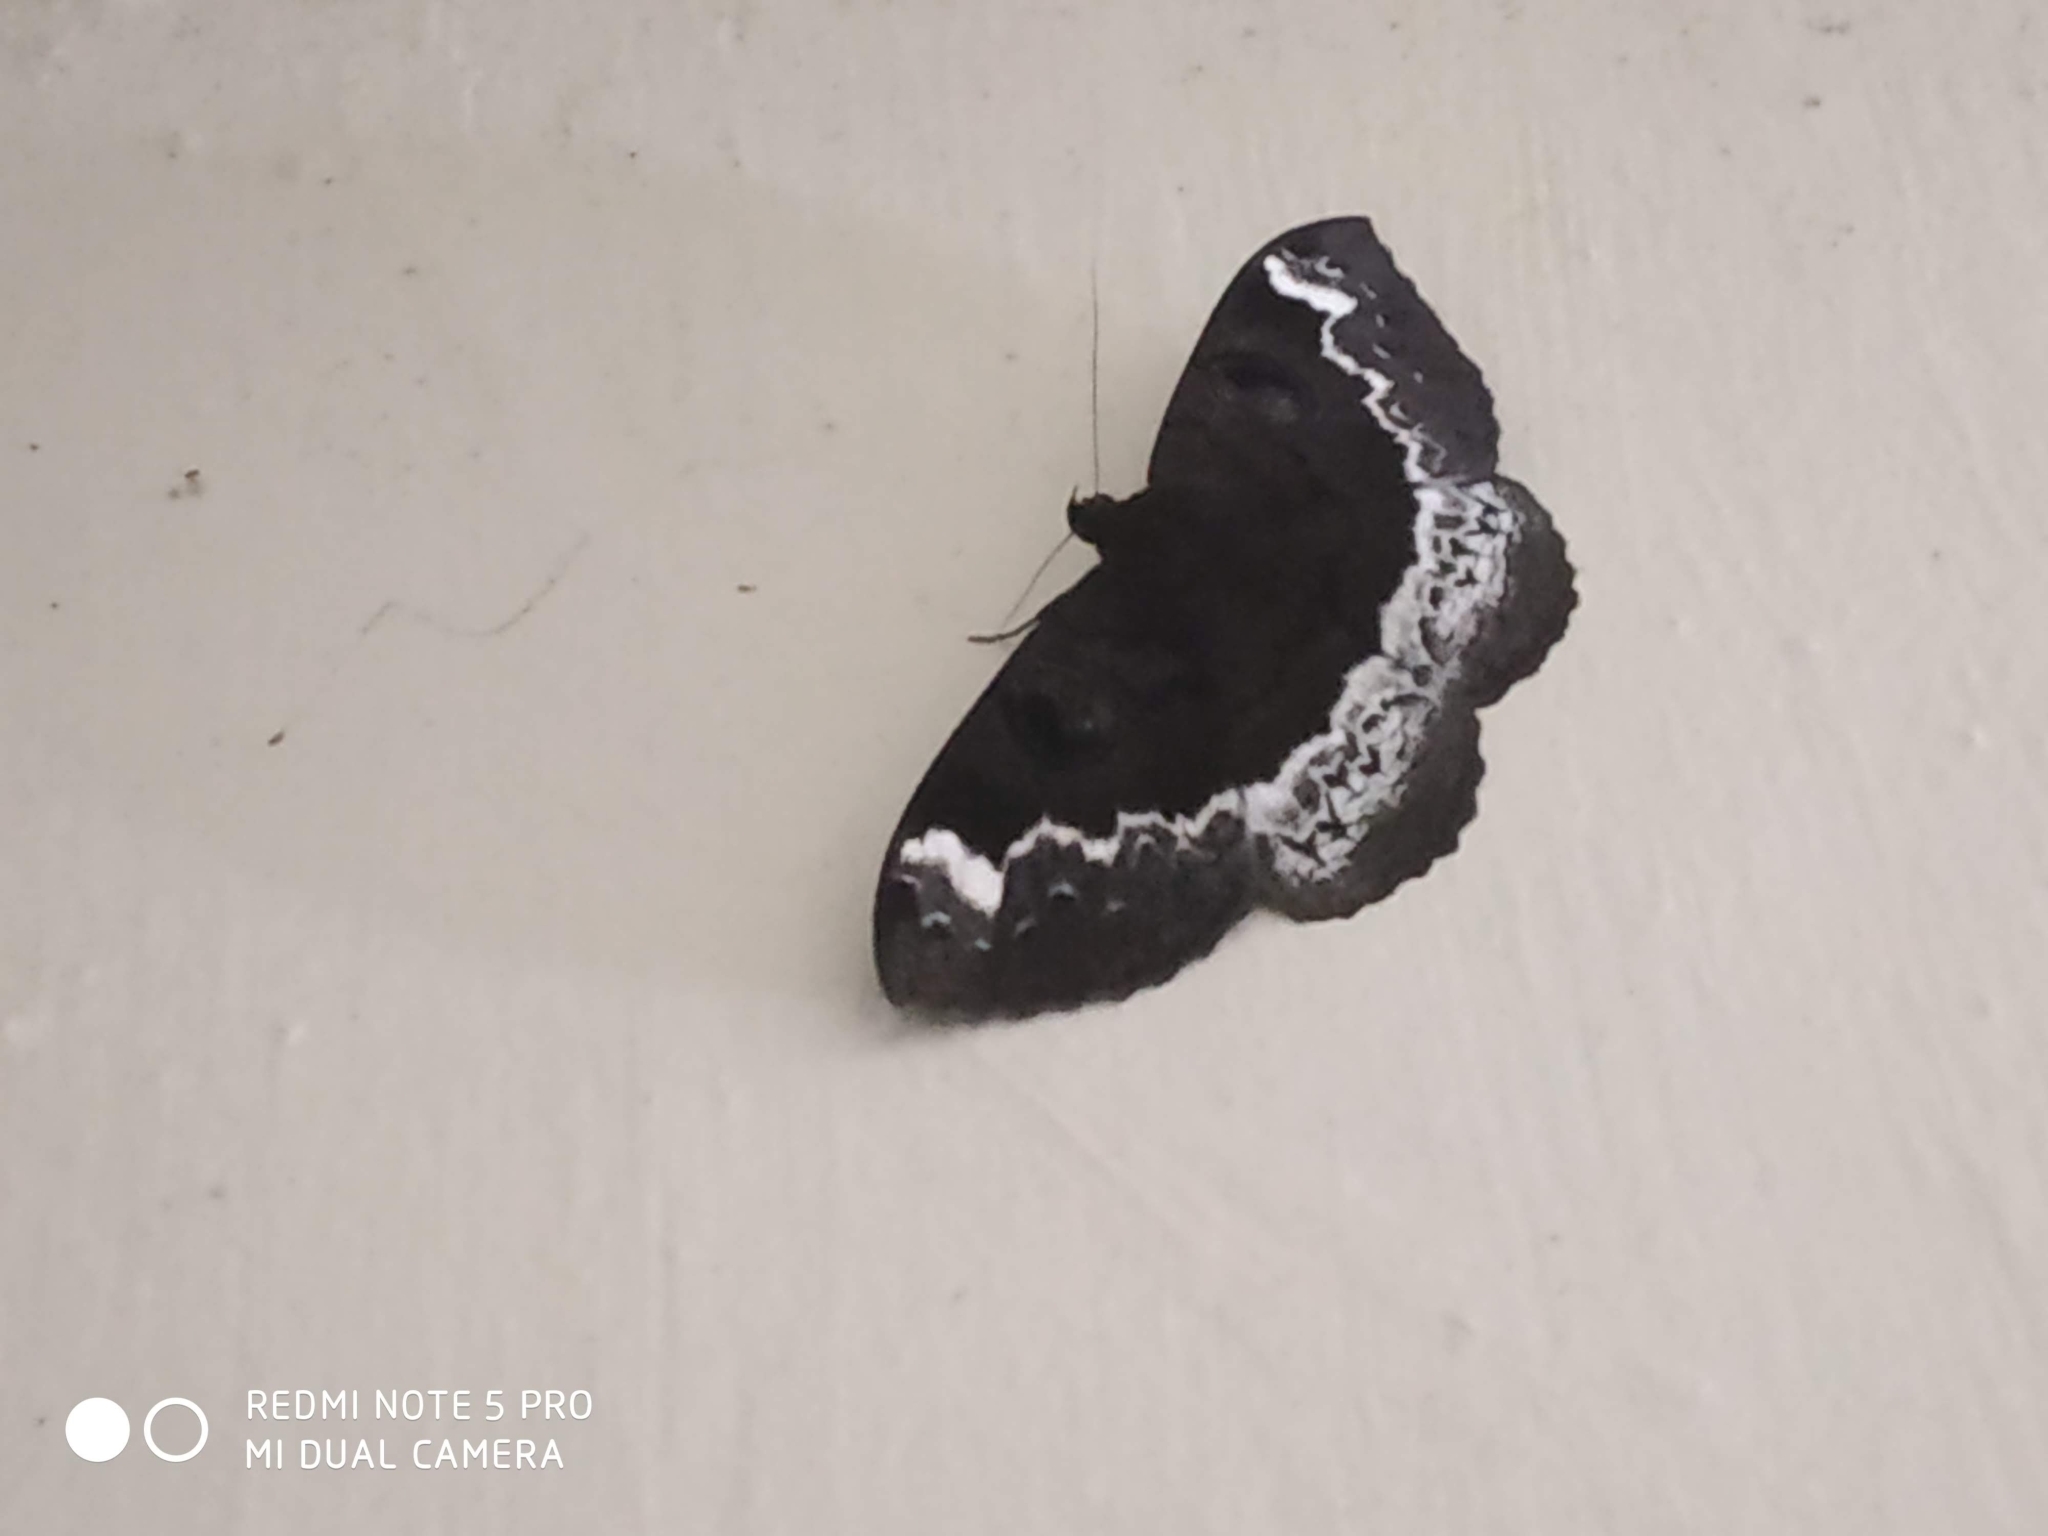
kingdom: Animalia
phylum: Arthropoda
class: Insecta
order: Lepidoptera
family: Erebidae
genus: Erebus
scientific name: Erebus caprimulgus
